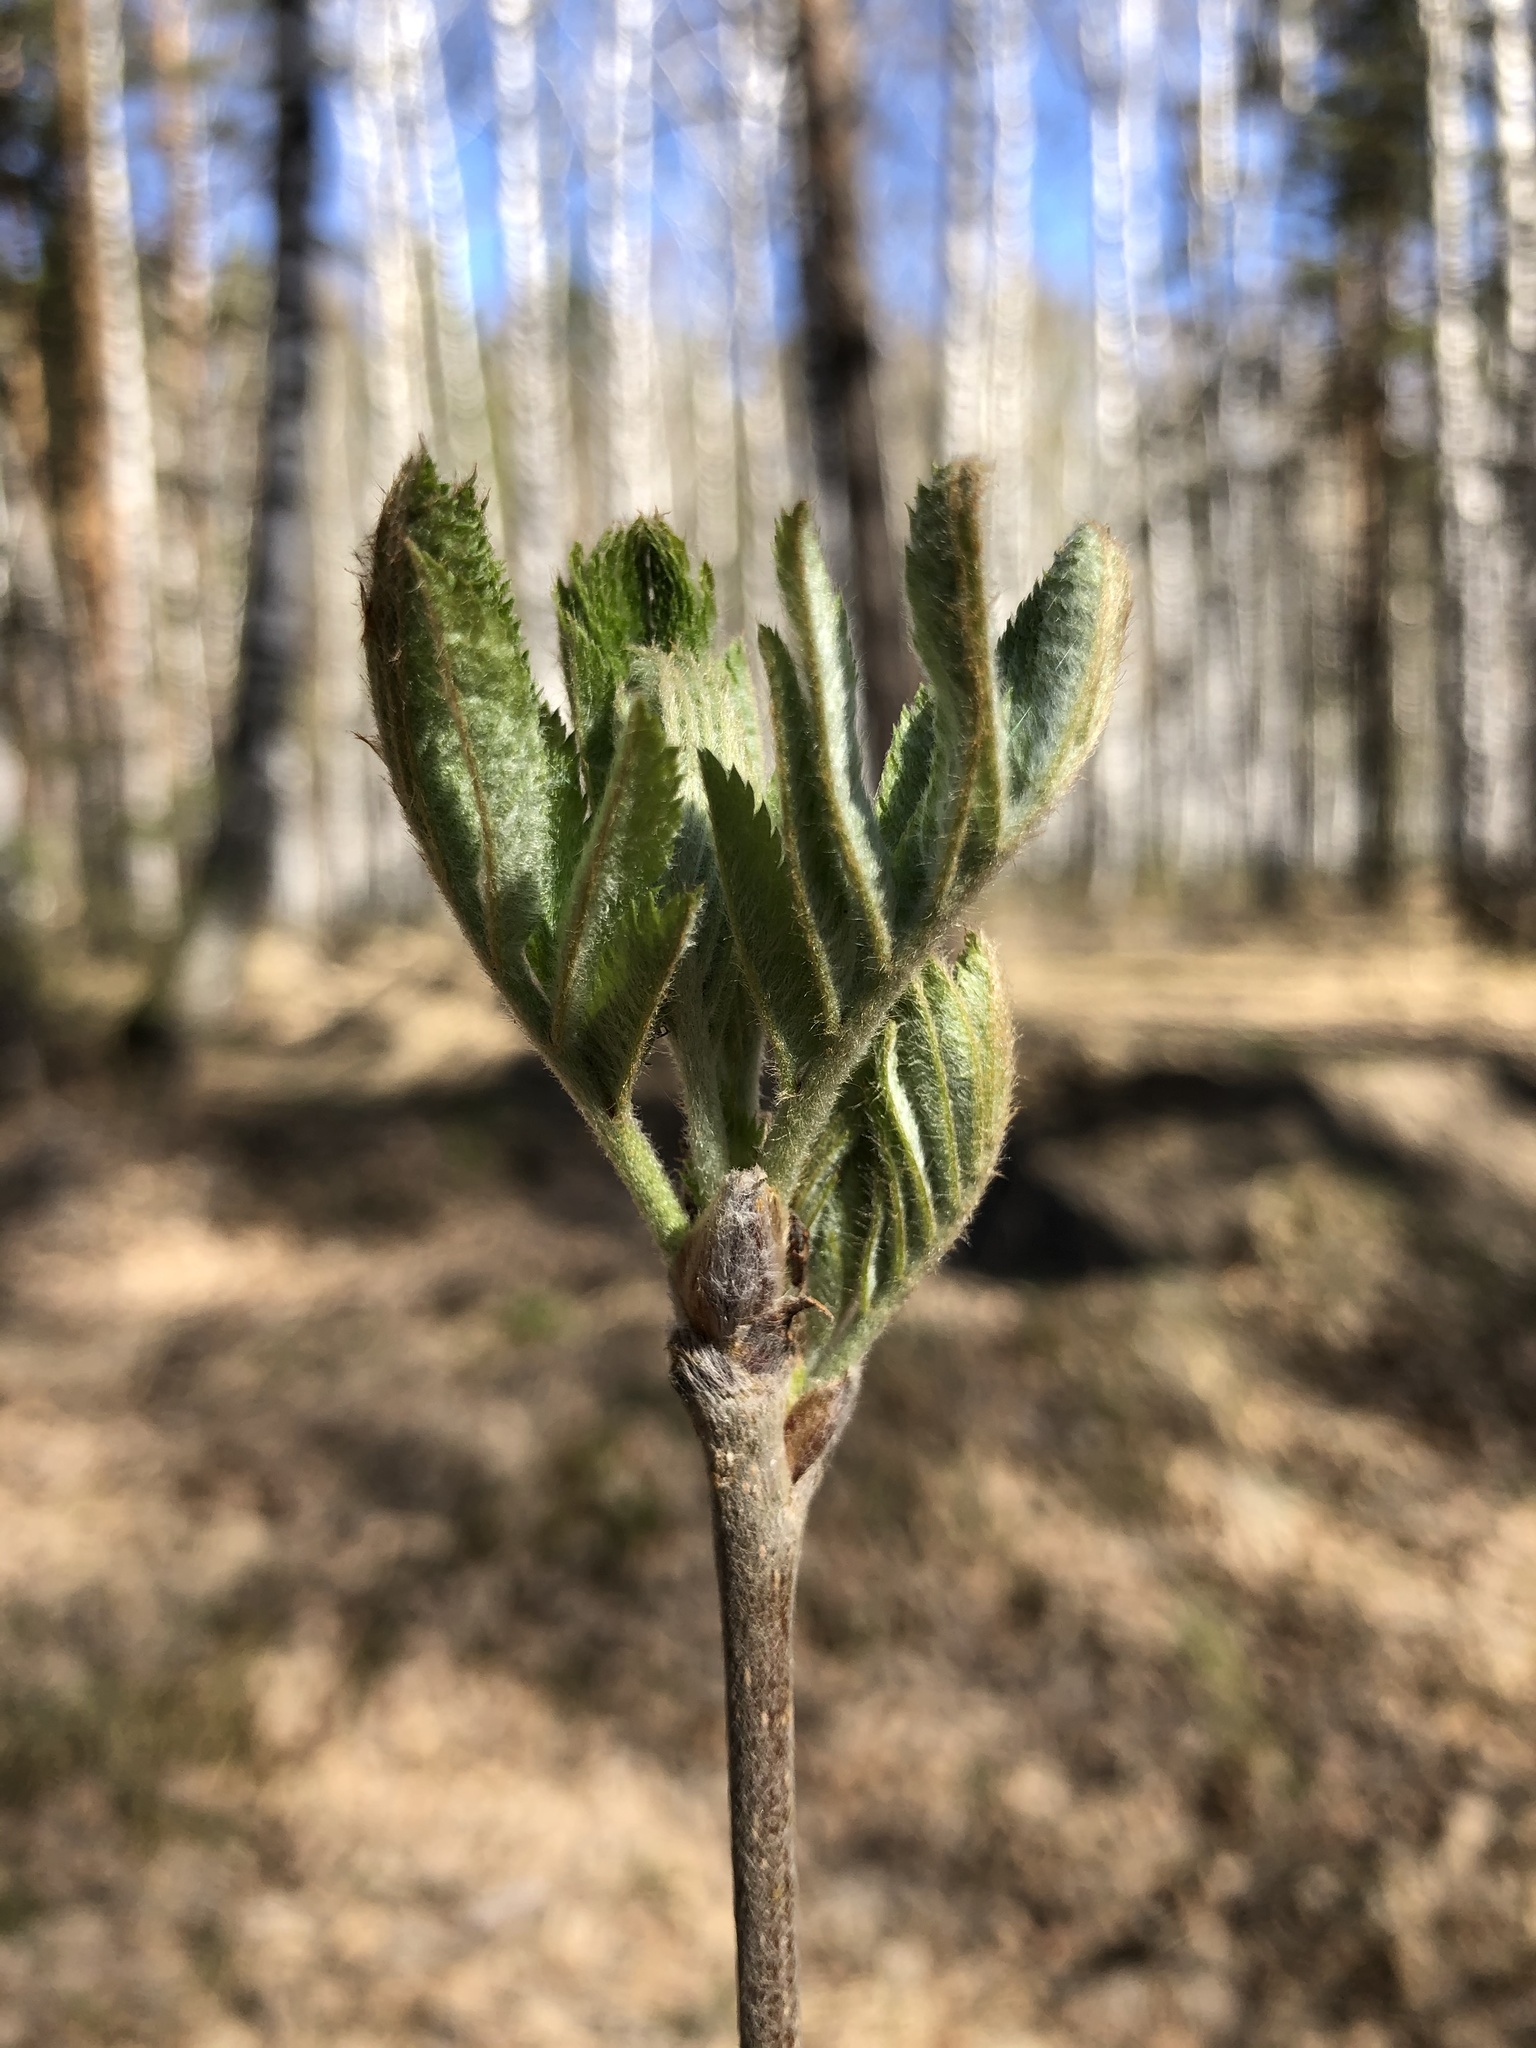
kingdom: Plantae
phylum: Tracheophyta
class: Magnoliopsida
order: Rosales
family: Rosaceae
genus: Sorbus
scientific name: Sorbus aucuparia
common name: Rowan
